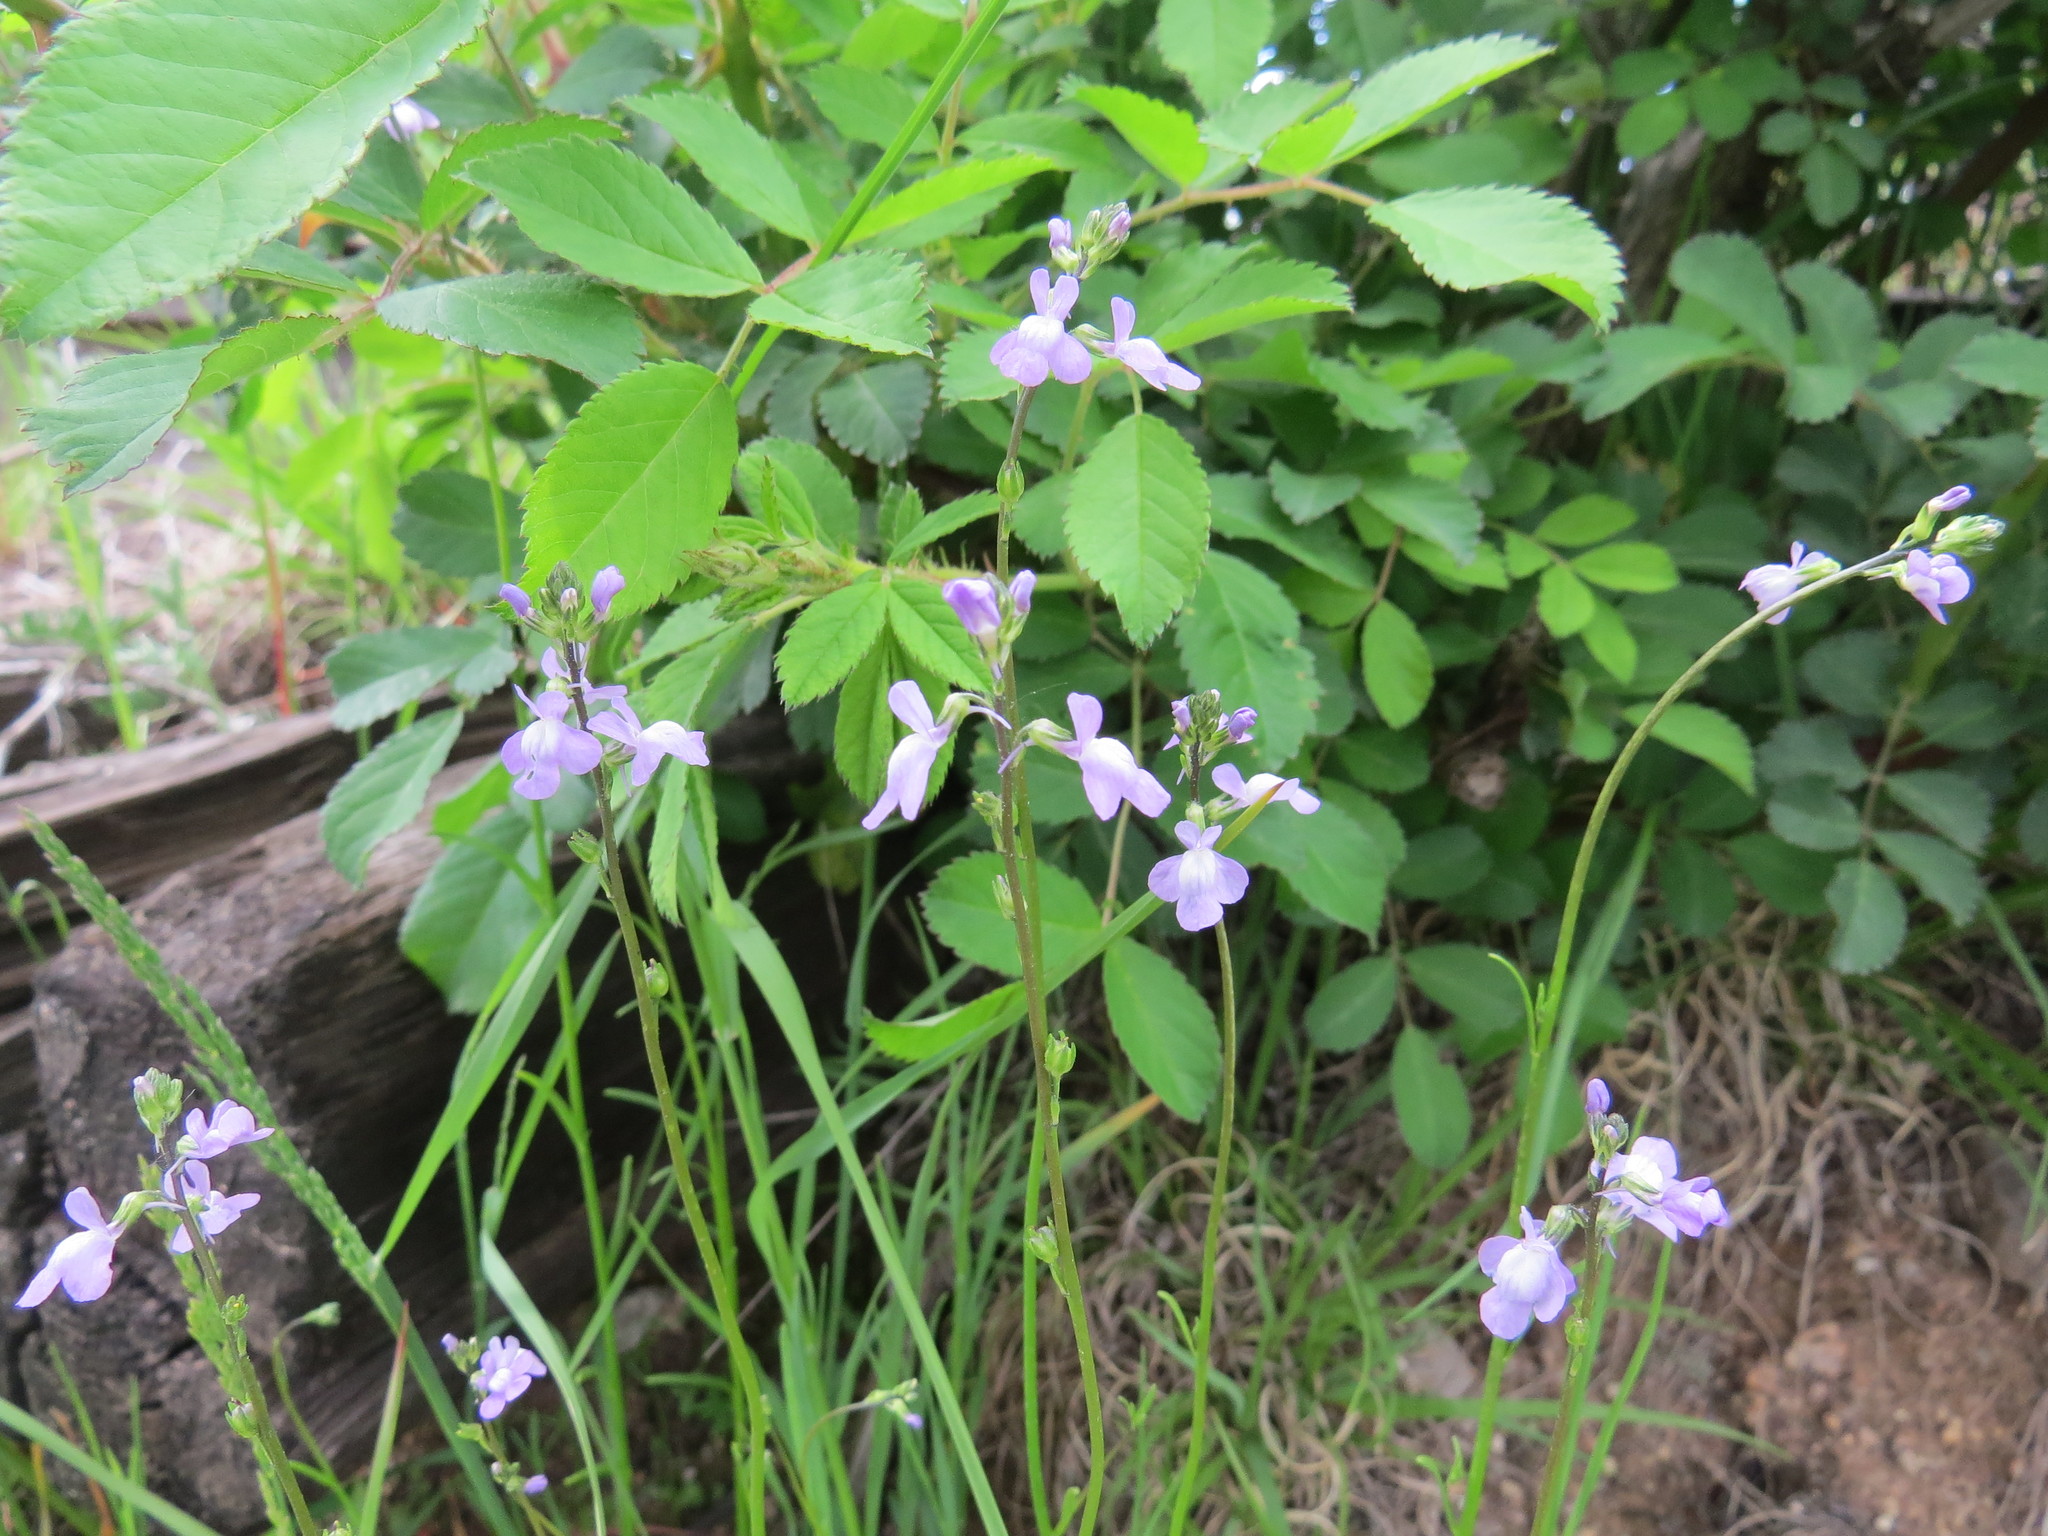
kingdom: Plantae
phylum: Tracheophyta
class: Magnoliopsida
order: Lamiales
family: Plantaginaceae
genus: Nuttallanthus
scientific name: Nuttallanthus canadensis
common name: Blue toadflax
